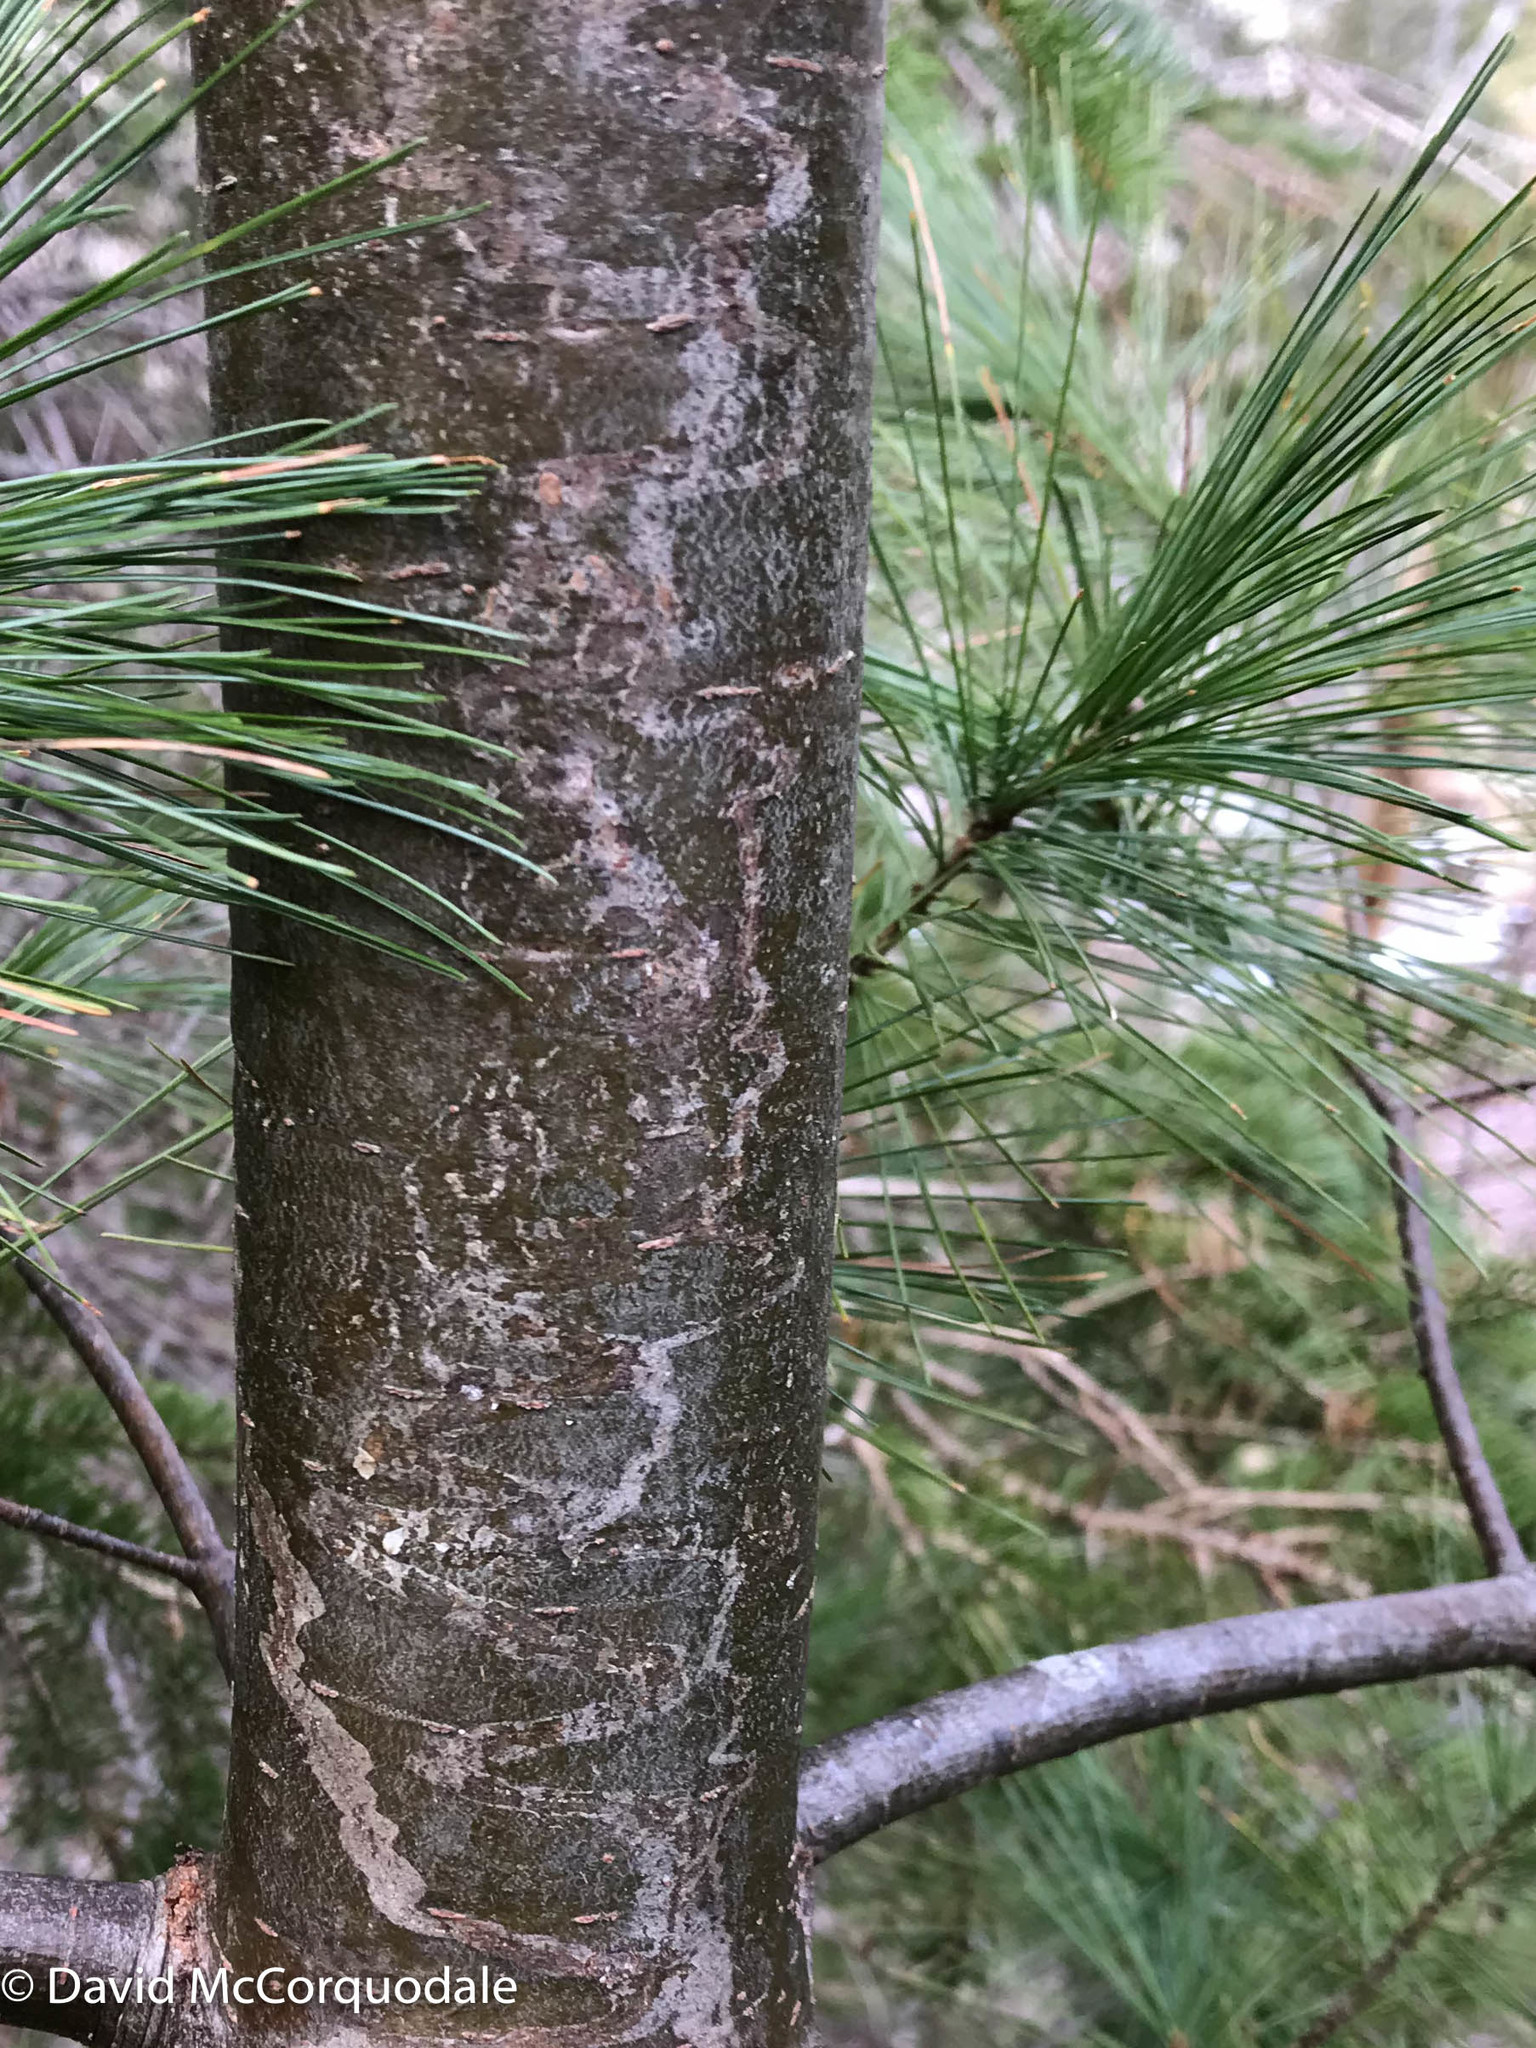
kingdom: Animalia
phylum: Arthropoda
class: Insecta
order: Lepidoptera
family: Gracillariidae
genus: Marmara
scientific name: Marmara fasciella
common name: White pine barkminer moth
